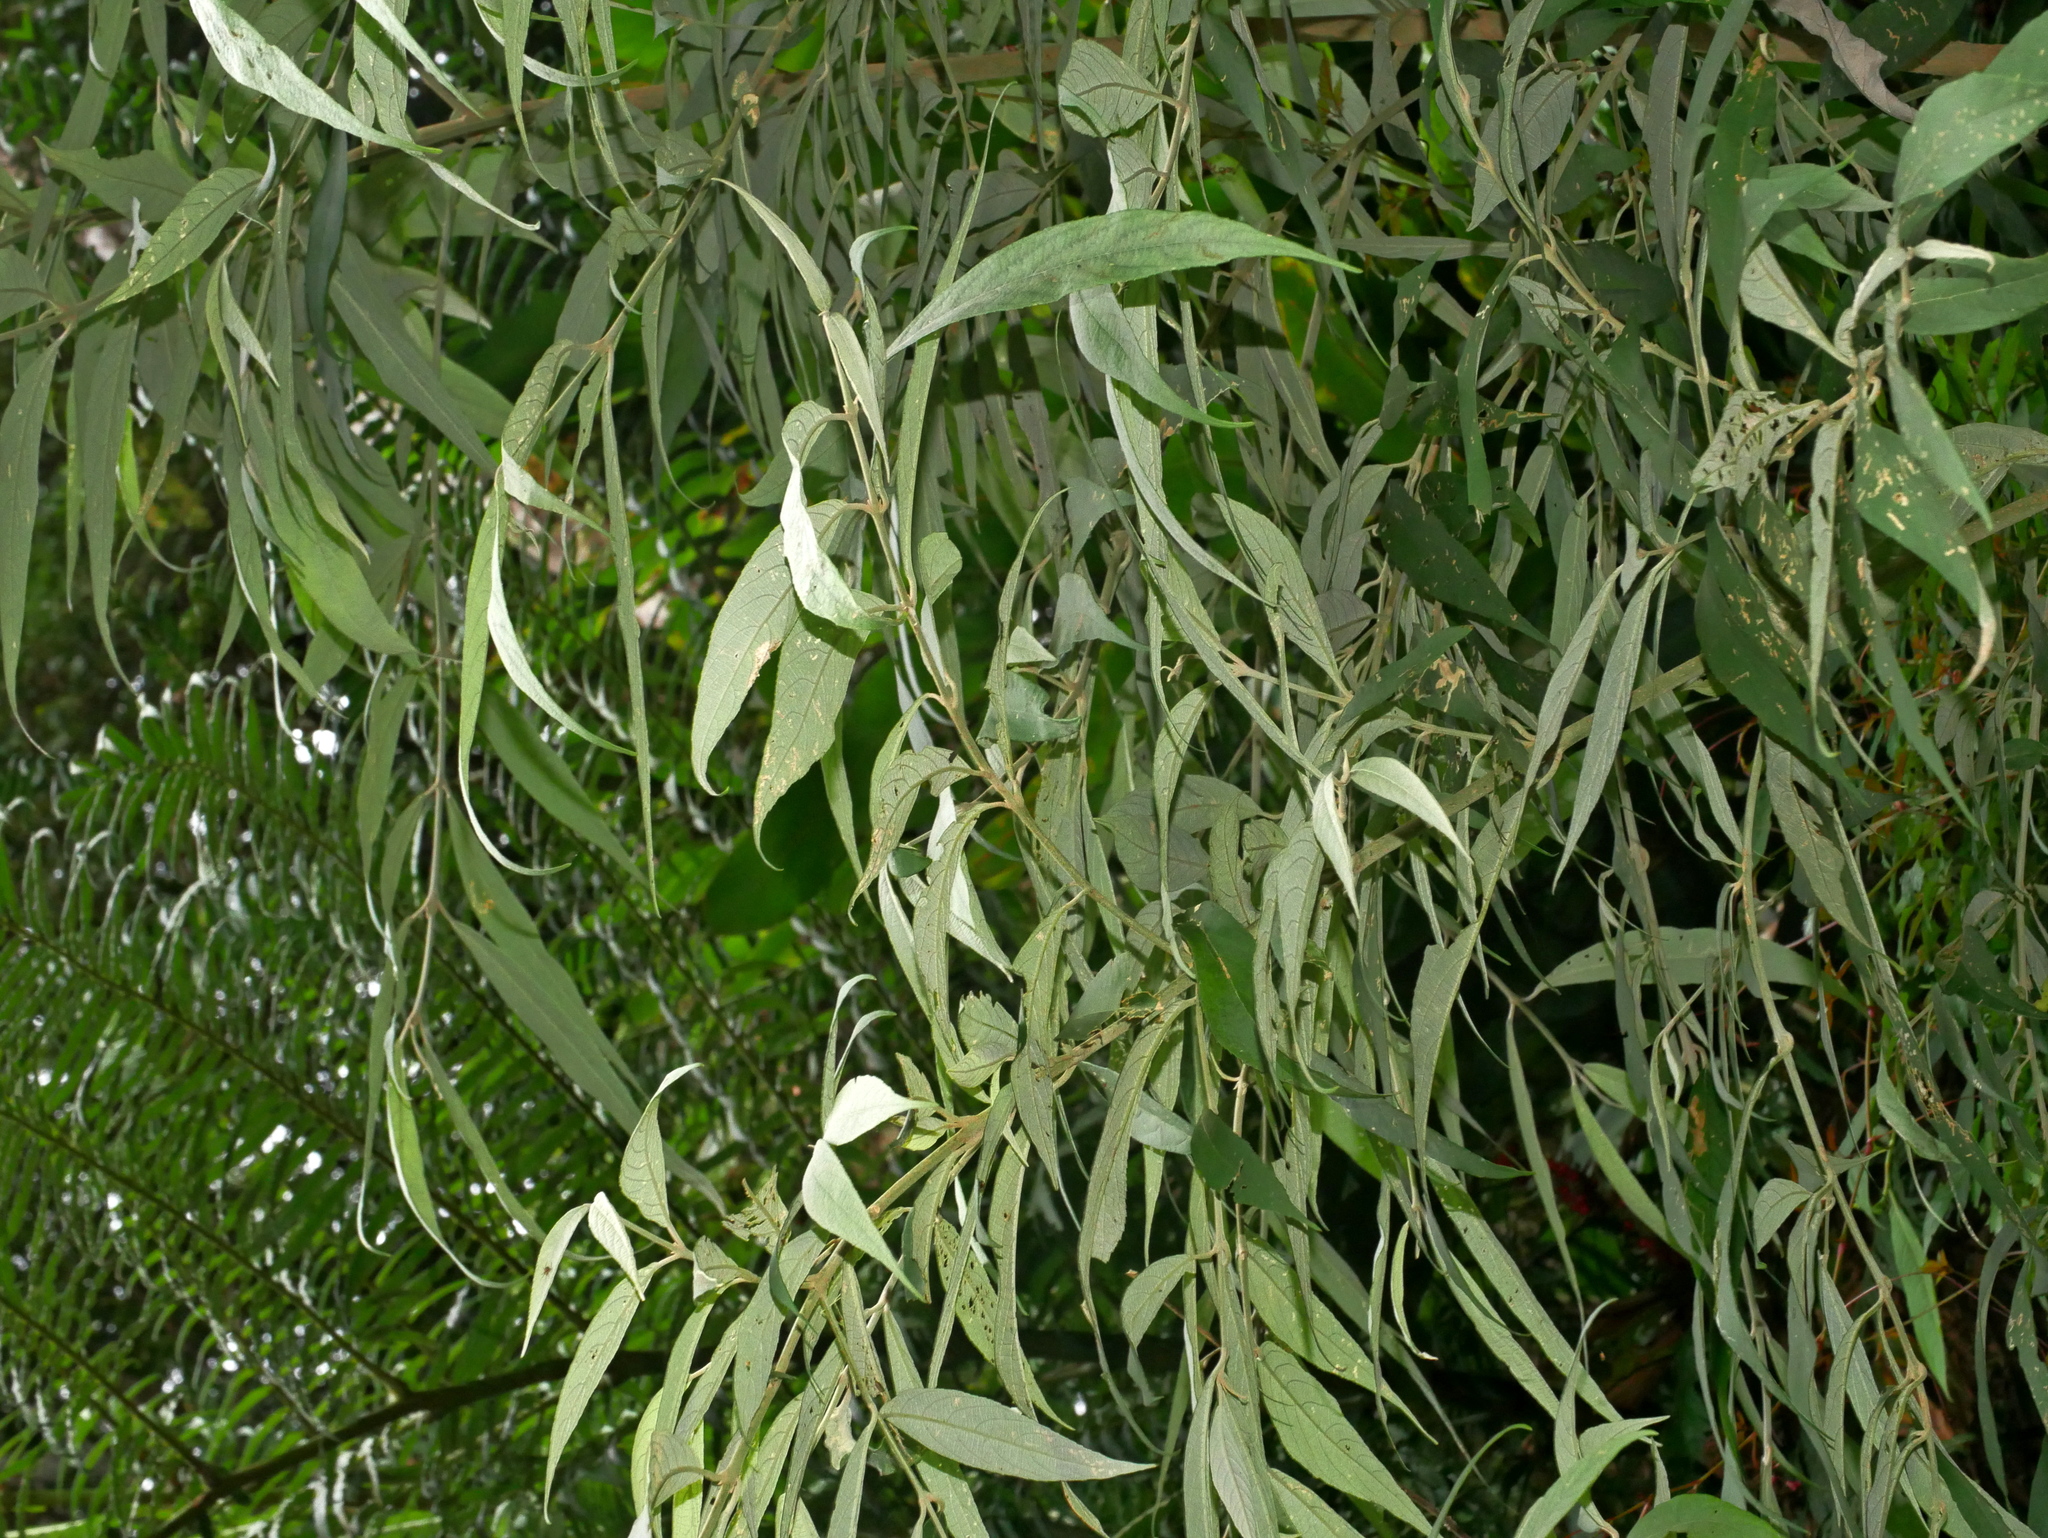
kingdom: Plantae
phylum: Tracheophyta
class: Magnoliopsida
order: Lamiales
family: Lamiaceae
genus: Callicarpa
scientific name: Callicarpa hypoleucophylla
